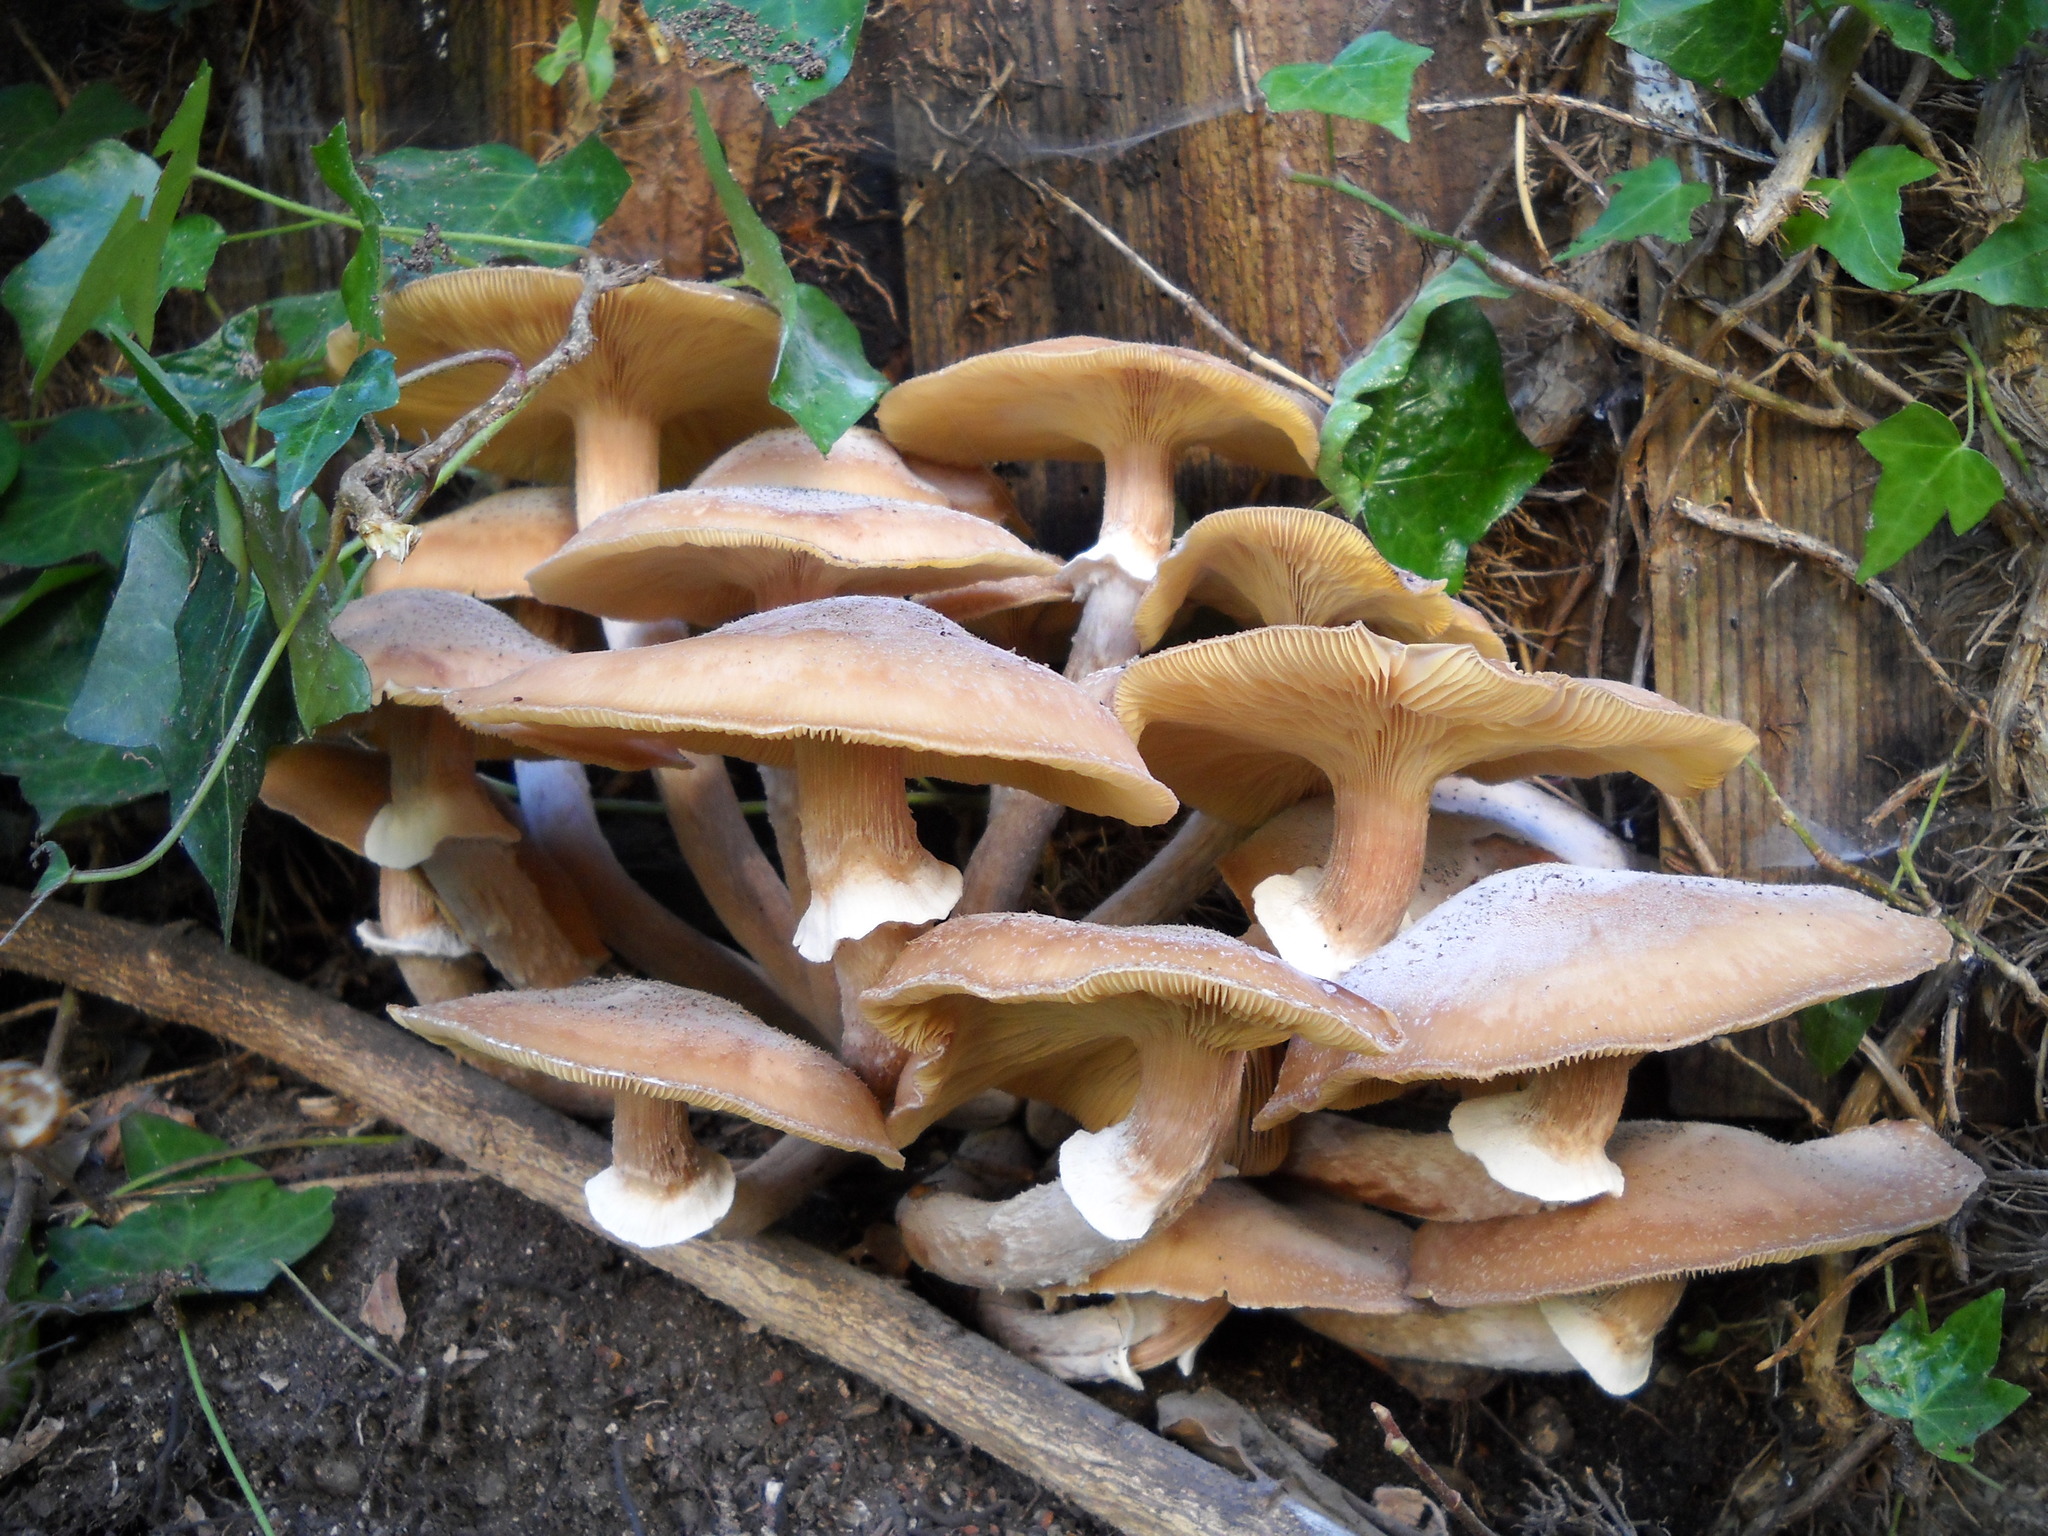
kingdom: Fungi
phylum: Basidiomycota
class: Agaricomycetes
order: Agaricales
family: Physalacriaceae
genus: Armillaria
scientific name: Armillaria mellea
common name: Honey fungus
